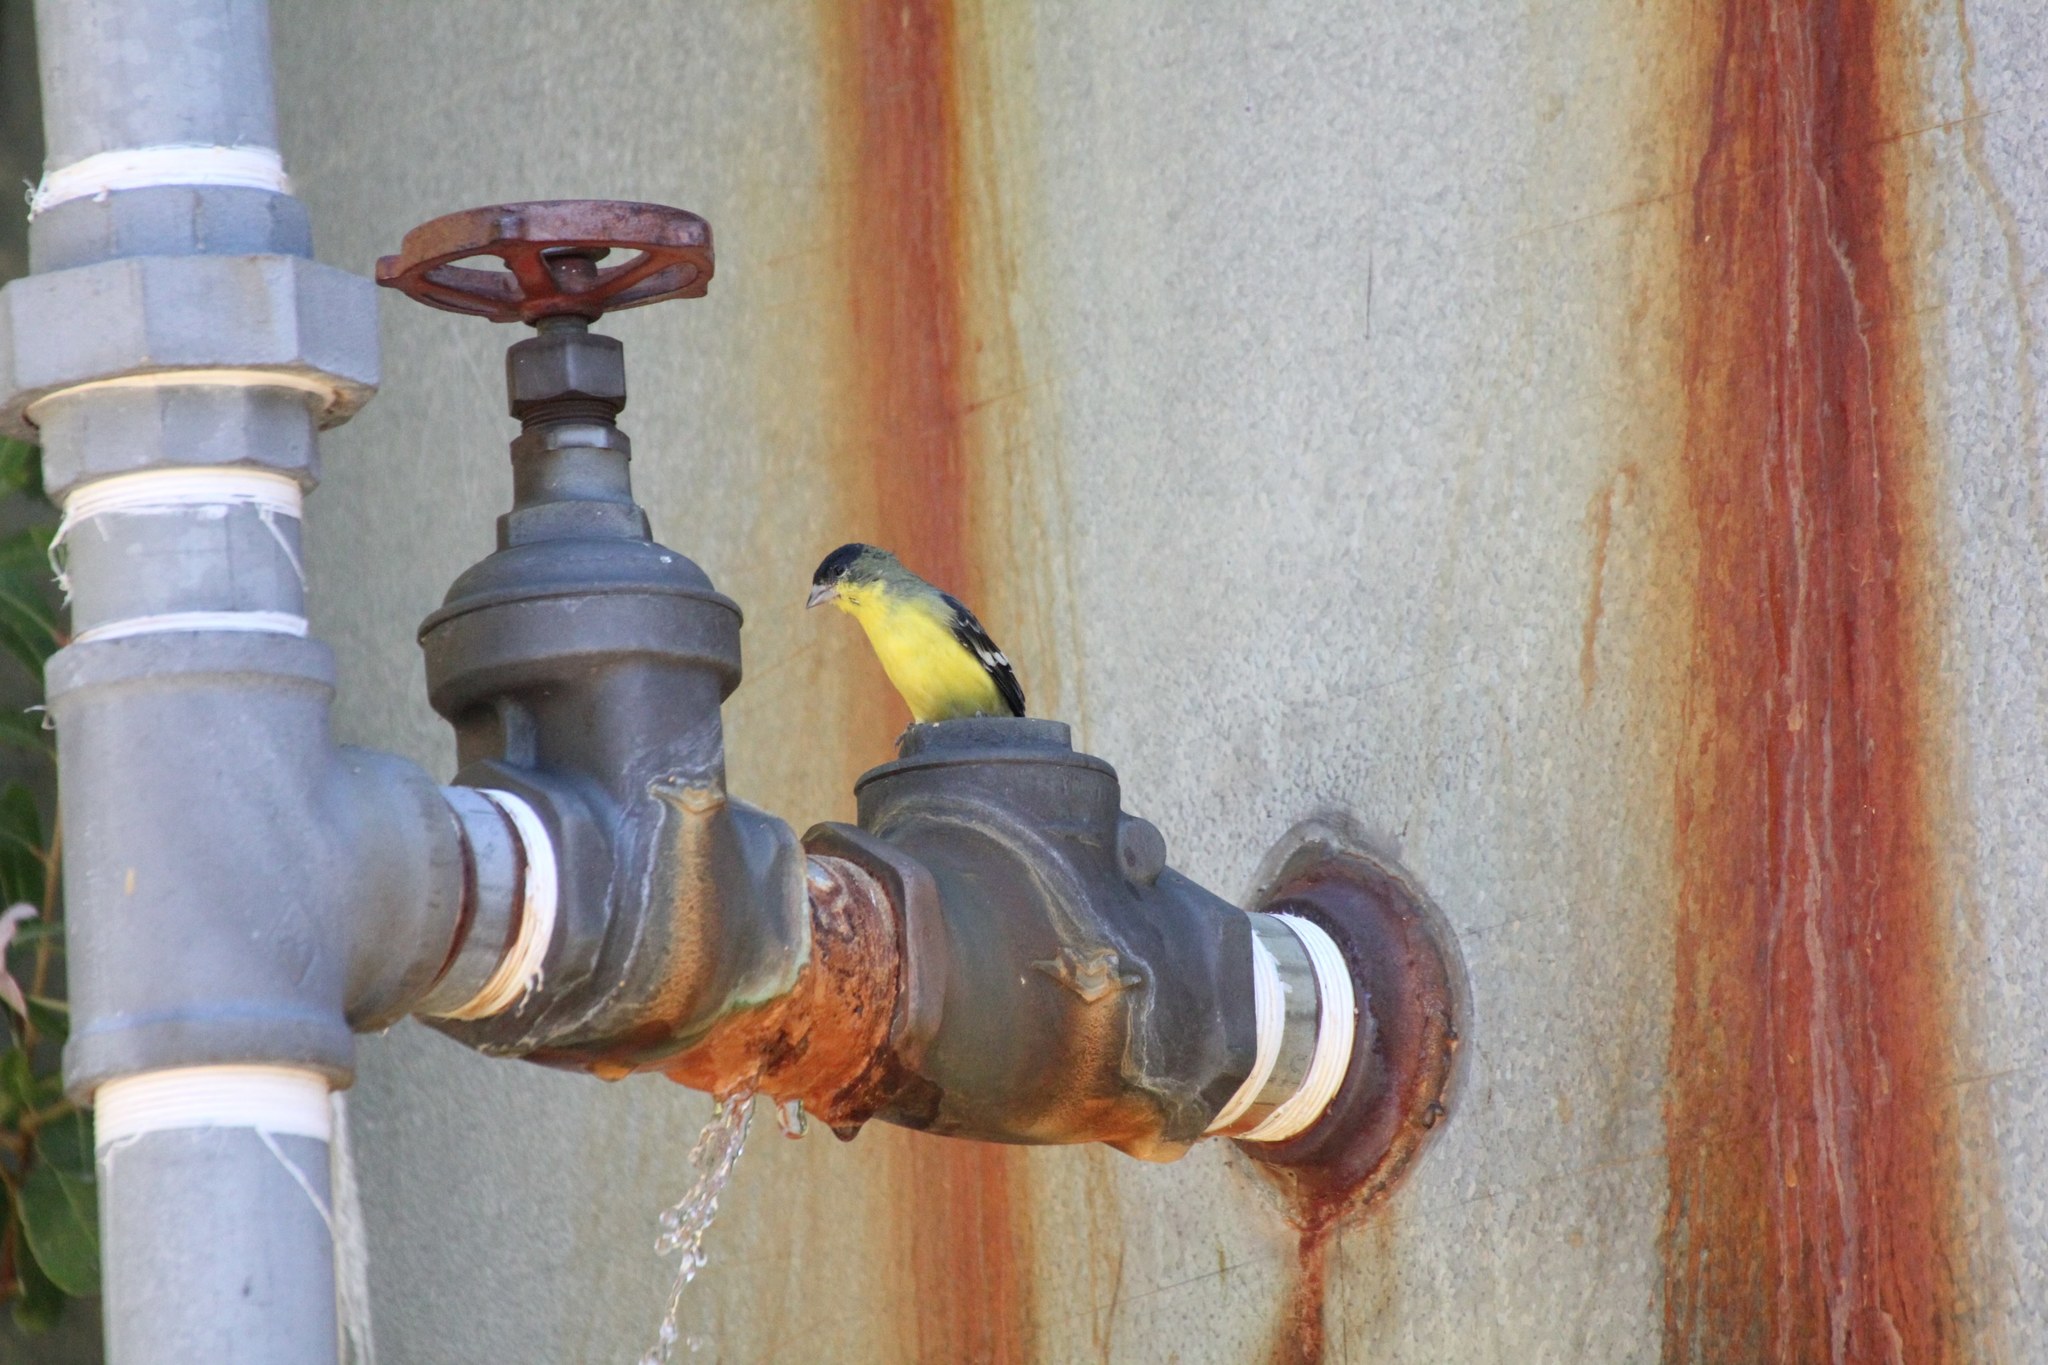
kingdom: Animalia
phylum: Chordata
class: Aves
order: Passeriformes
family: Fringillidae
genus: Spinus
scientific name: Spinus psaltria
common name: Lesser goldfinch
